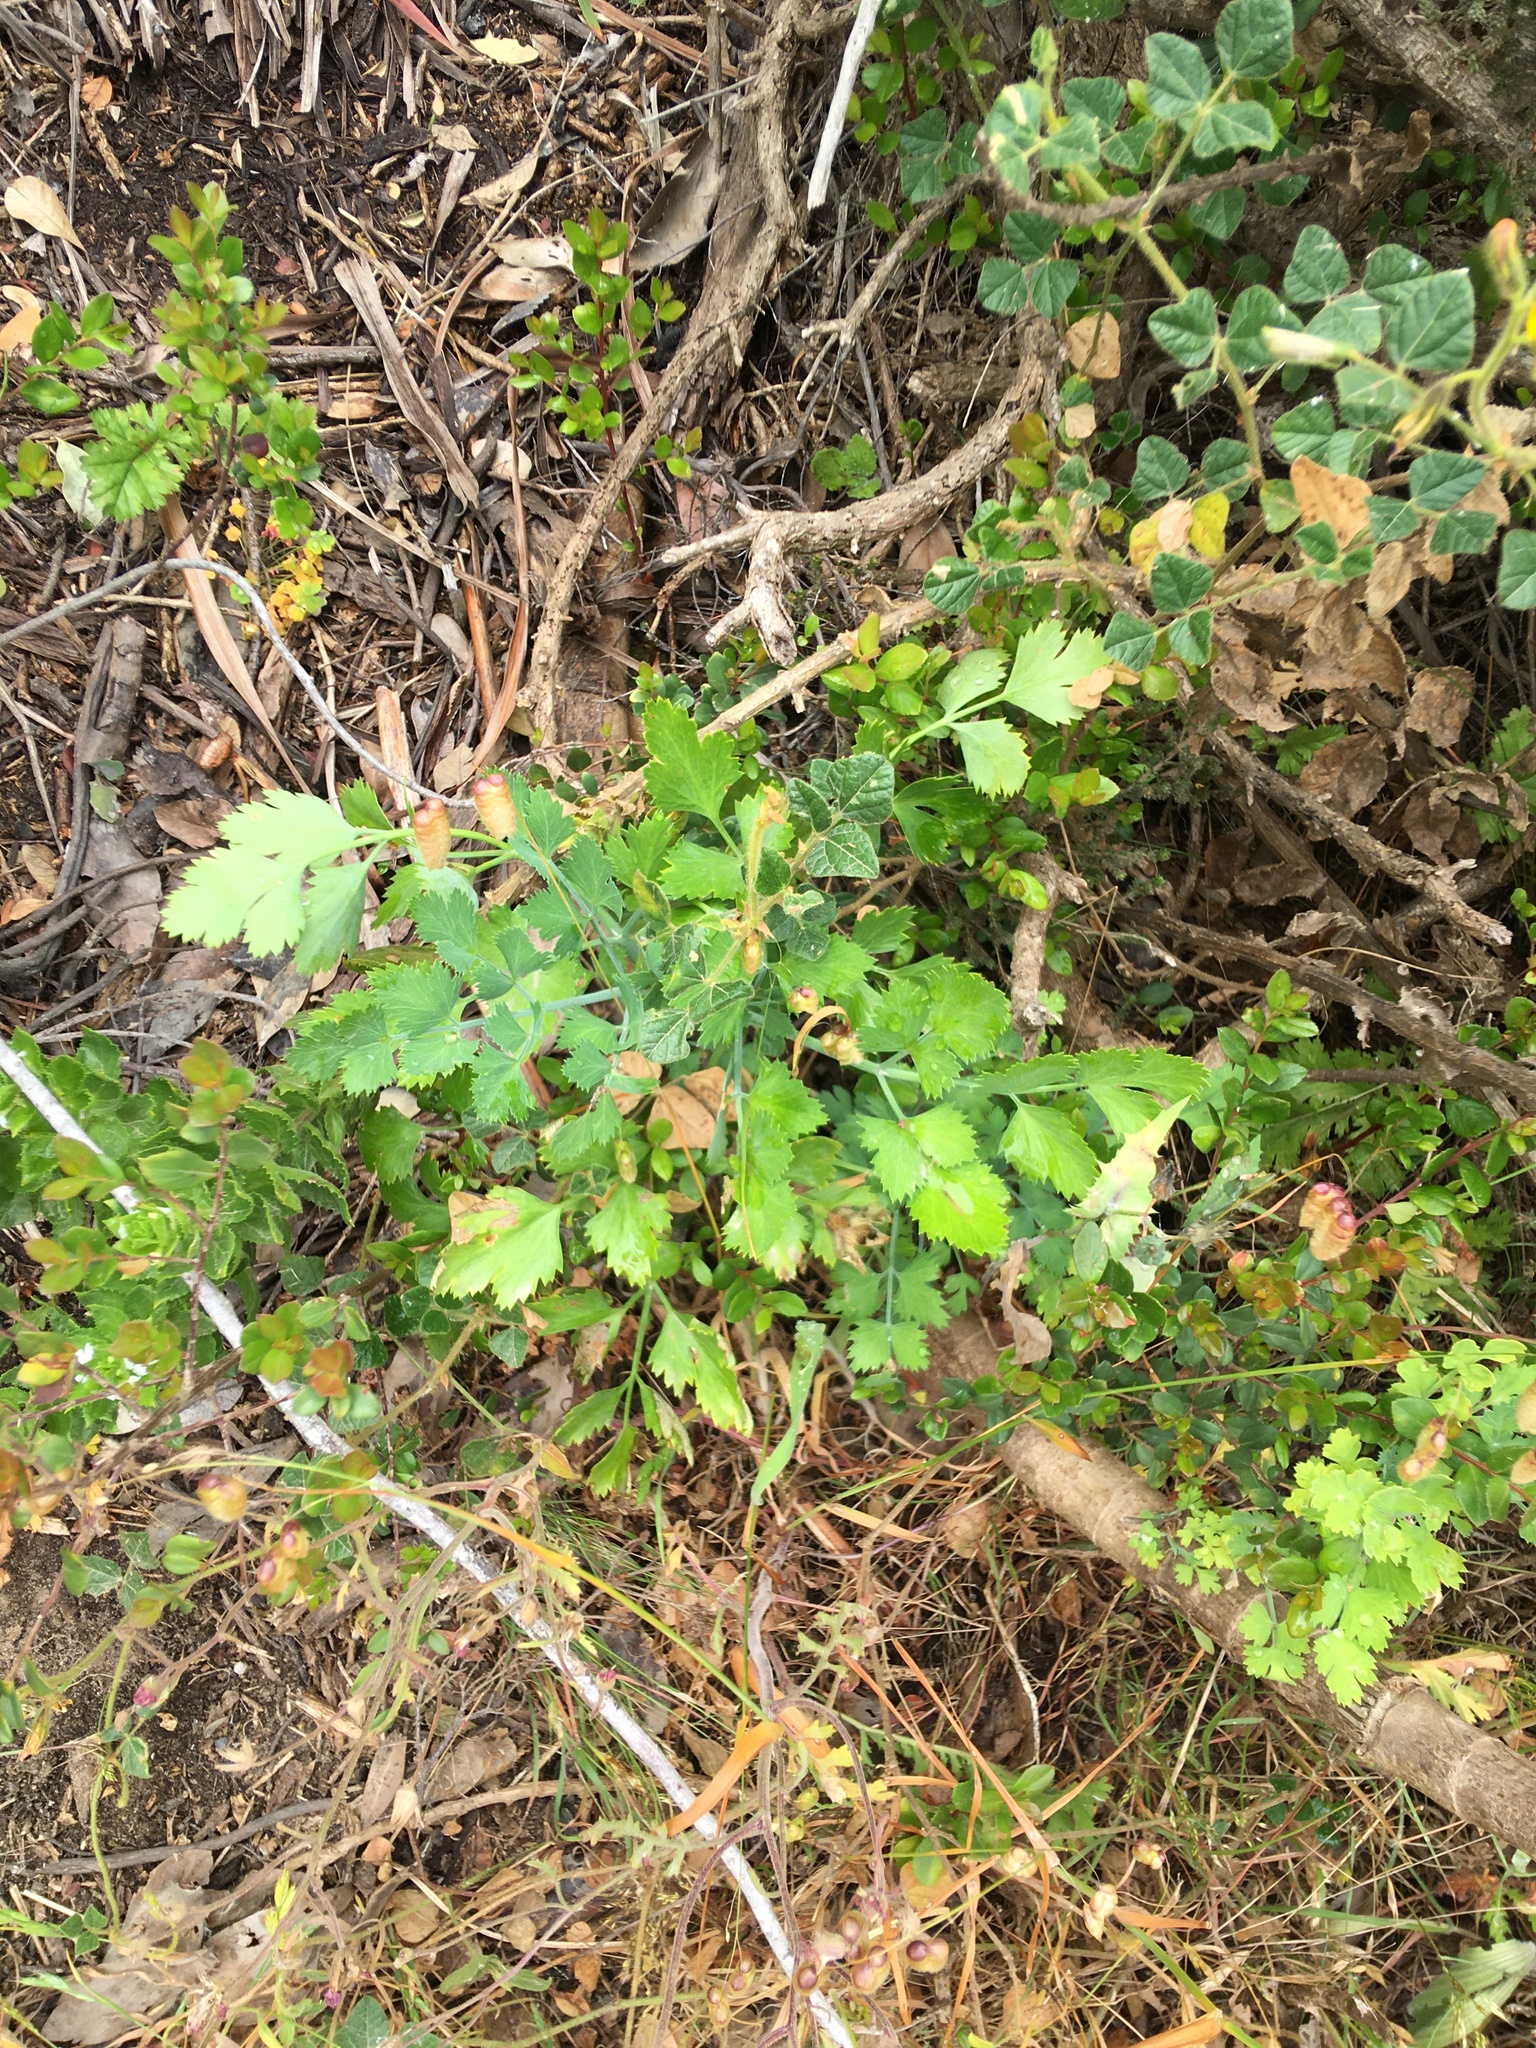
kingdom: Plantae
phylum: Tracheophyta
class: Magnoliopsida
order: Apiales
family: Apiaceae
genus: Notobubon
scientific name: Notobubon galbanum
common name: Blisterbush
